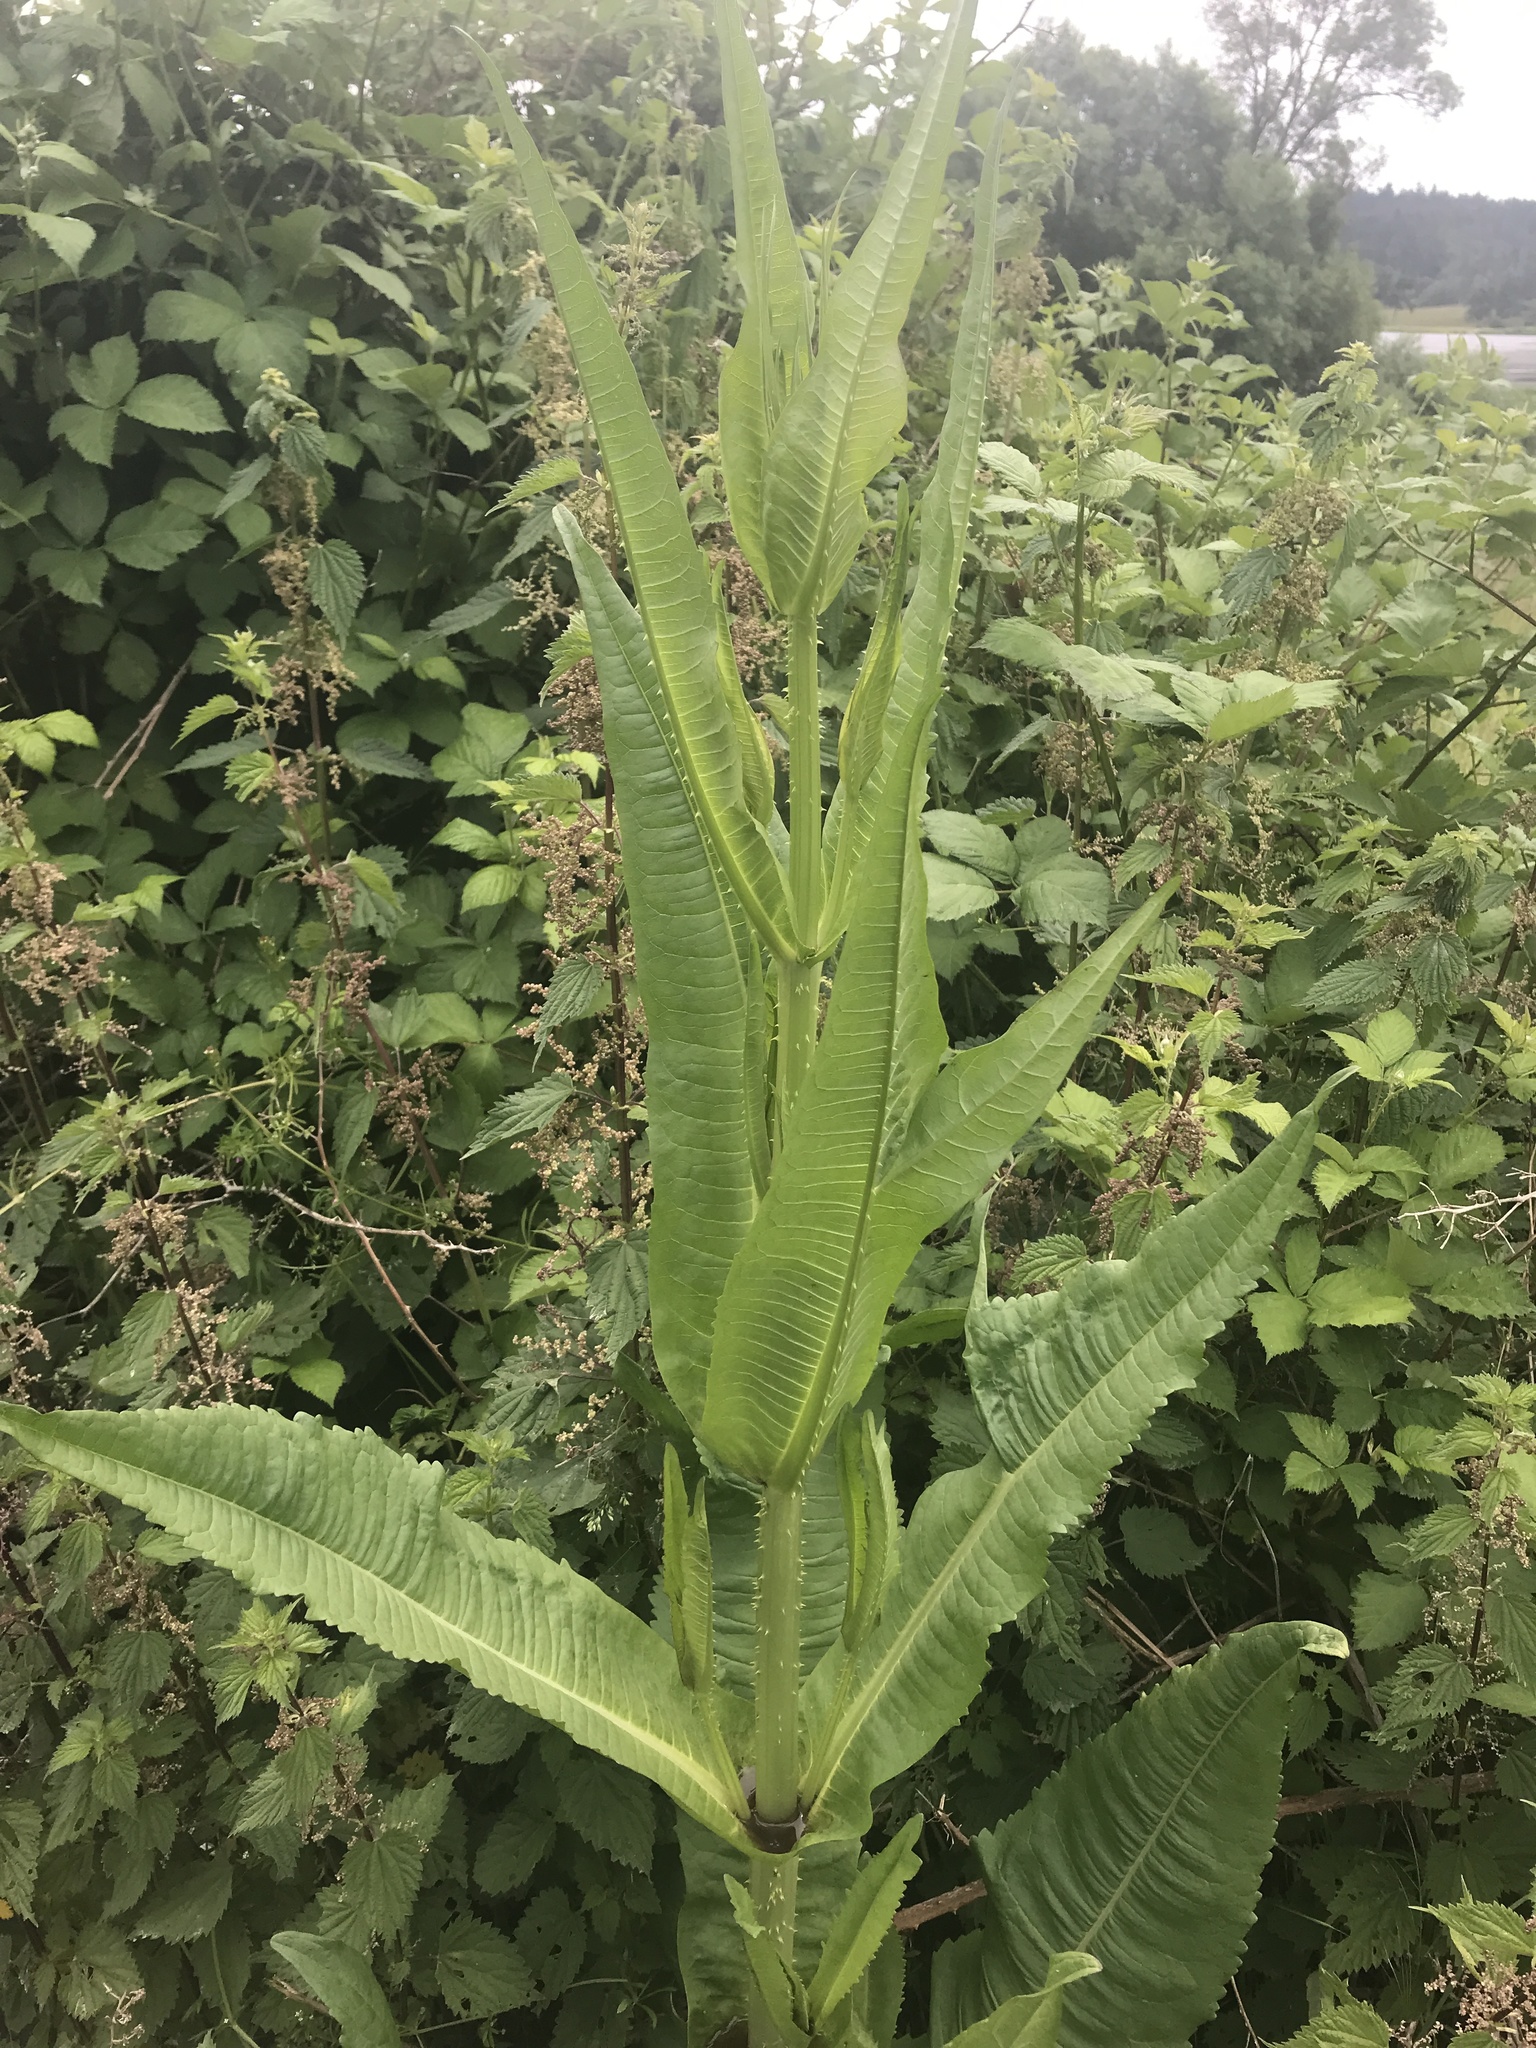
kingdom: Plantae
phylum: Tracheophyta
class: Magnoliopsida
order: Dipsacales
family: Caprifoliaceae
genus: Dipsacus
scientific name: Dipsacus fullonum
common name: Teasel
